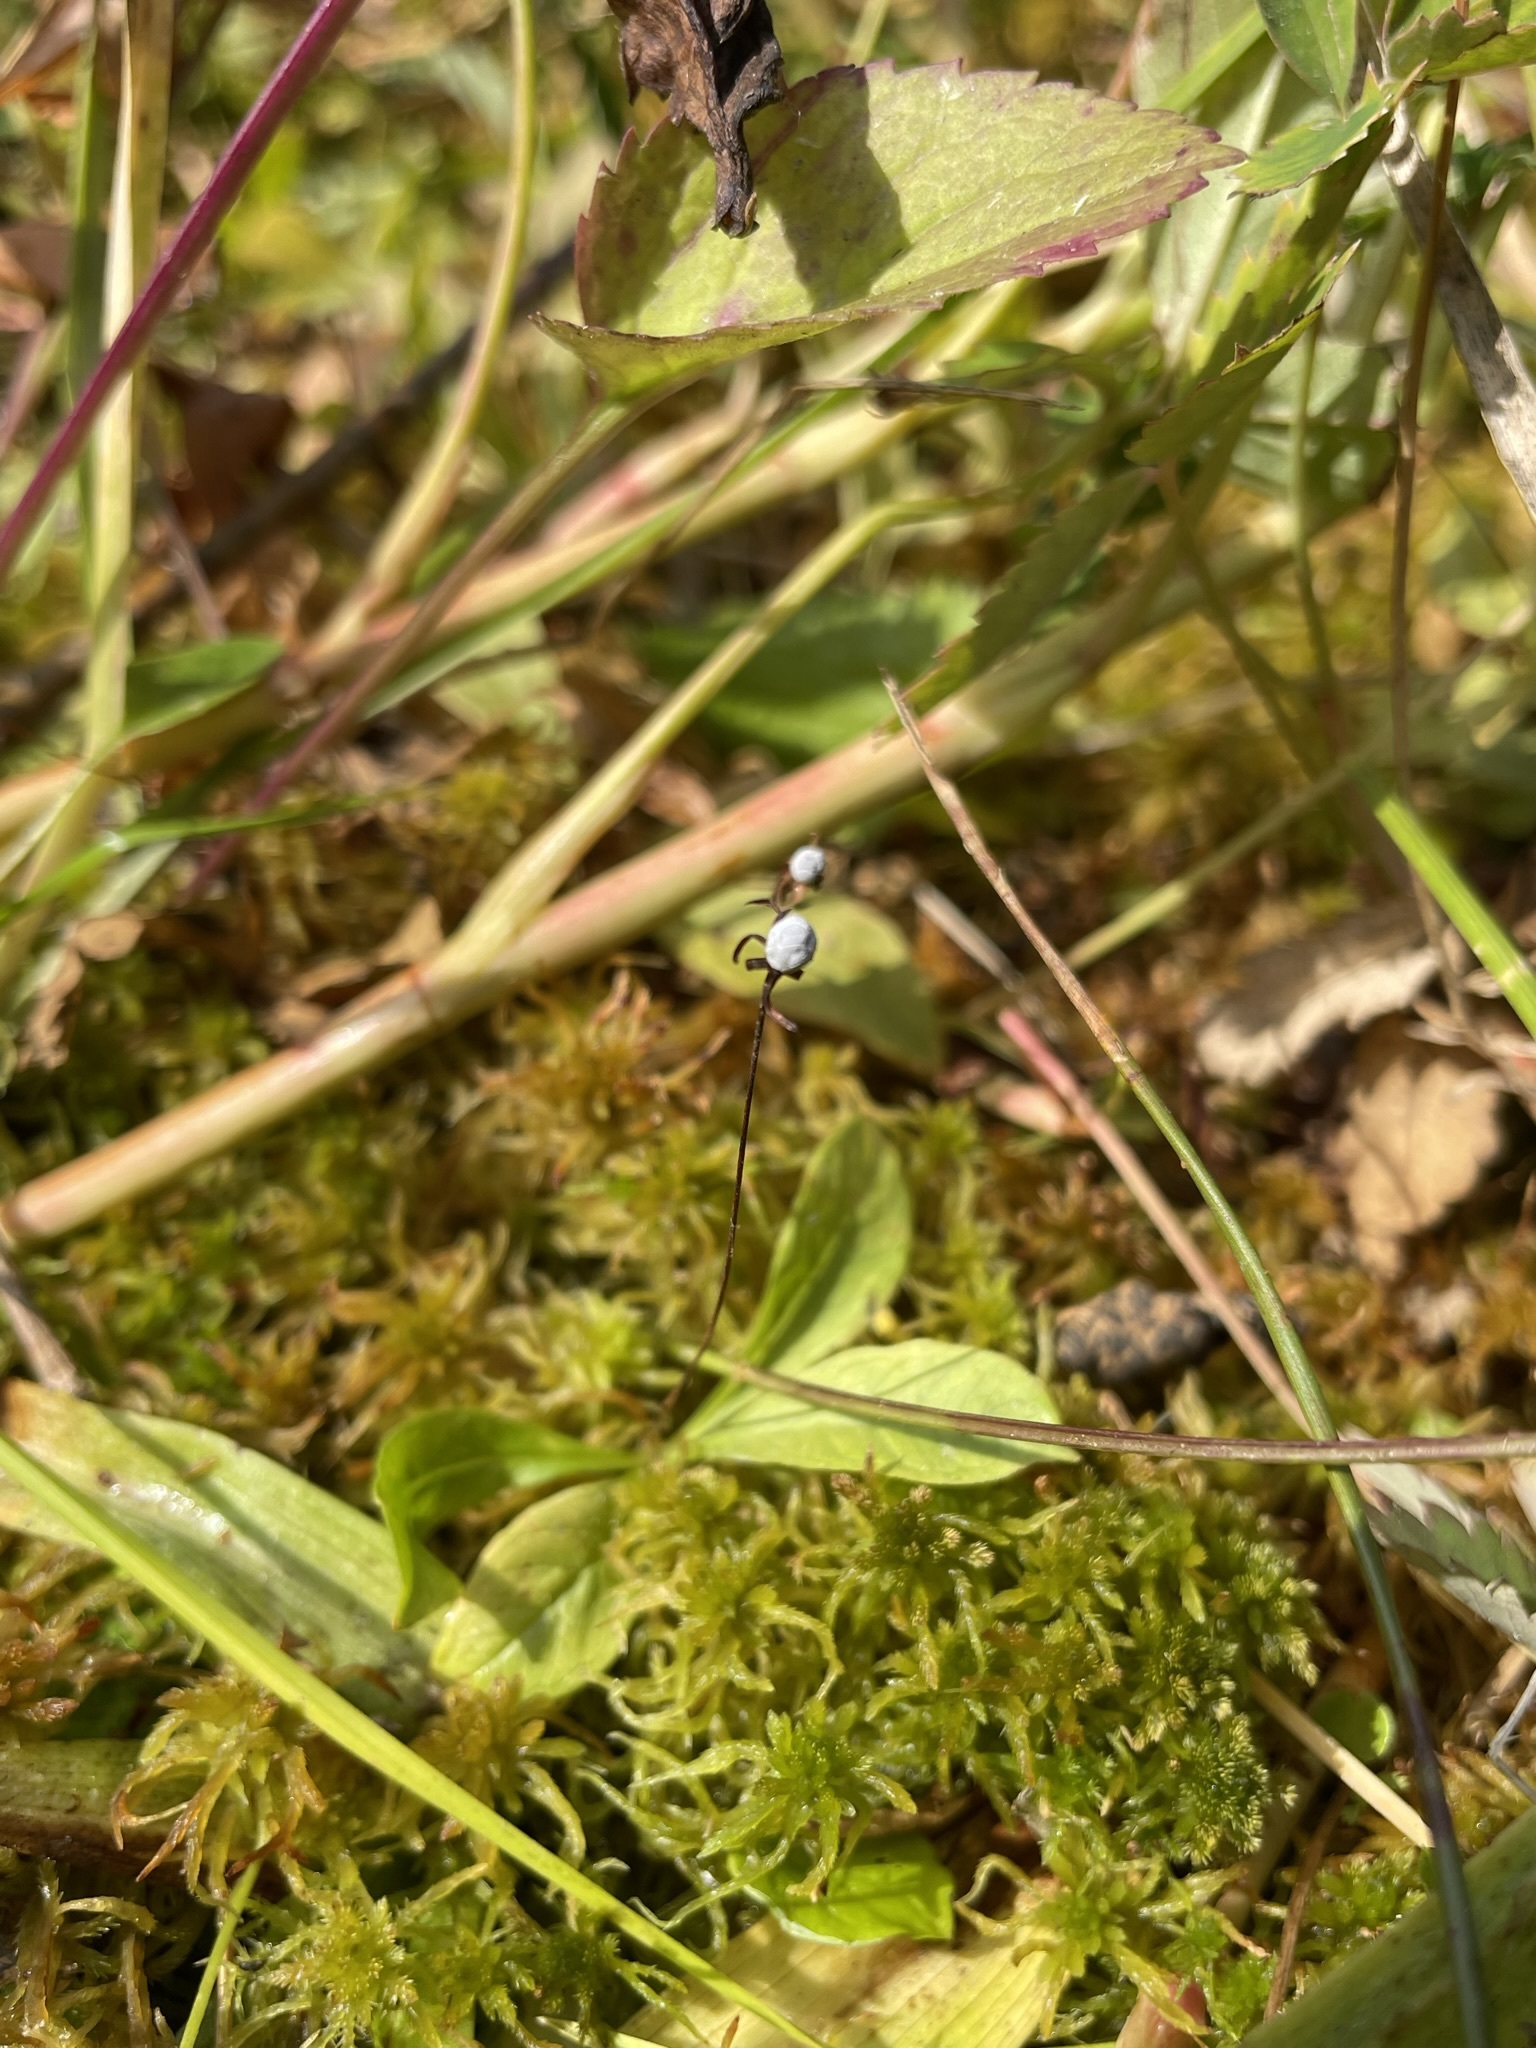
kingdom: Plantae
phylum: Tracheophyta
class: Magnoliopsida
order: Ericales
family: Primulaceae
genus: Lysimachia
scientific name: Lysimachia europaea
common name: Arctic starflower
